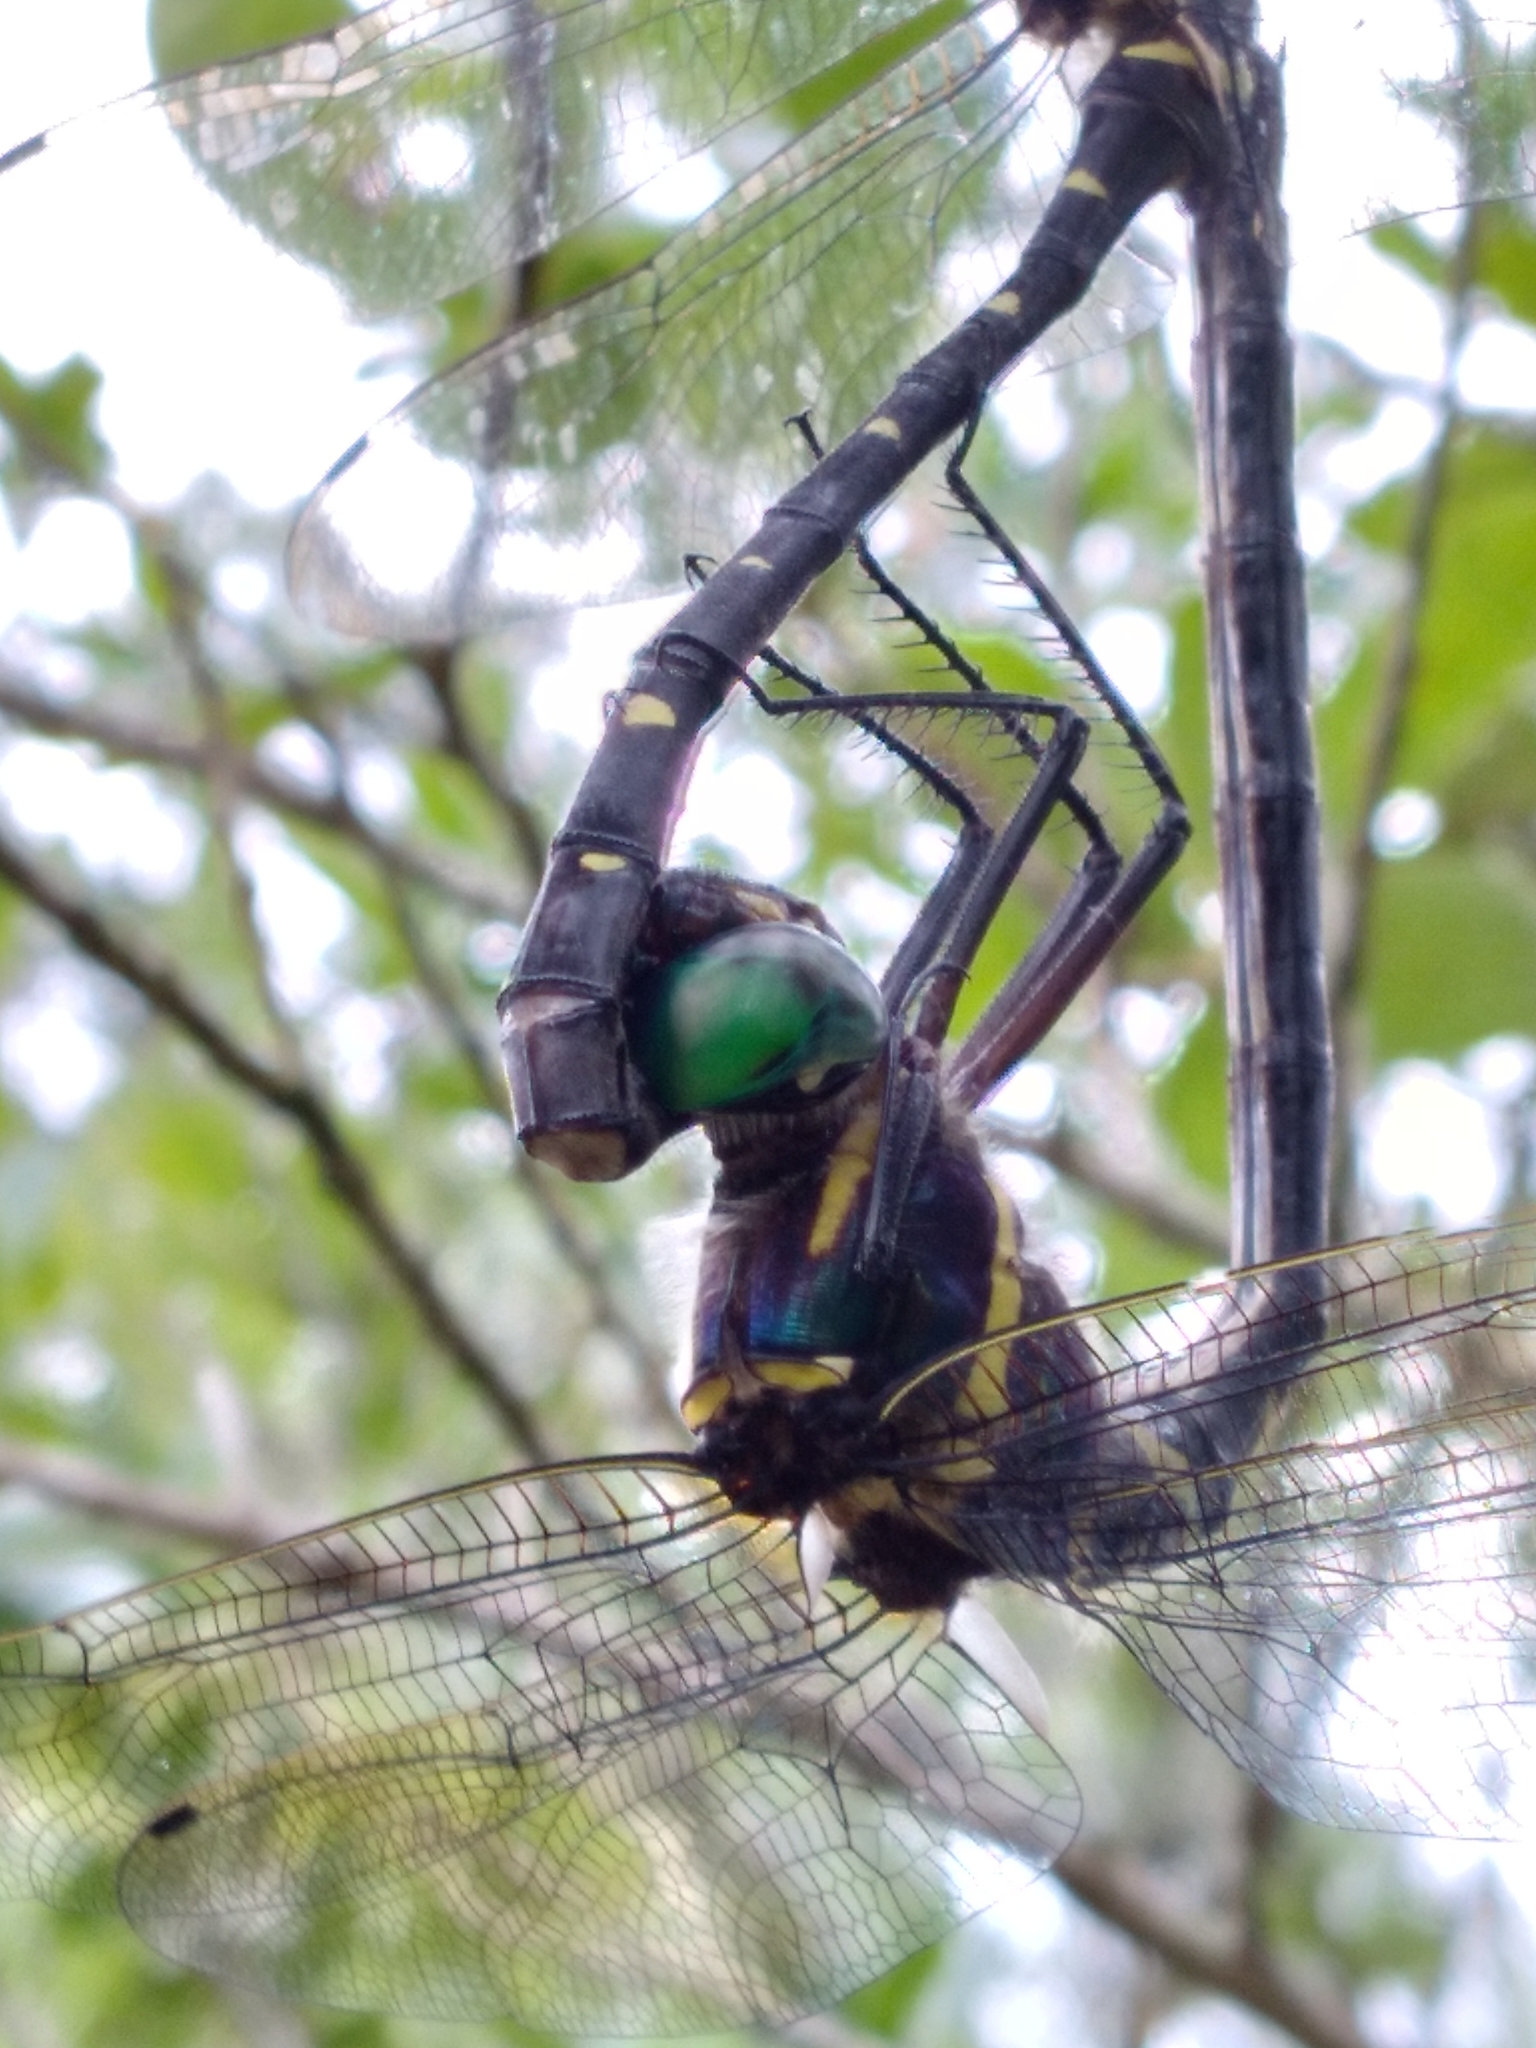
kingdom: Animalia
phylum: Arthropoda
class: Insecta
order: Odonata
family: Macromiidae
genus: Macromia
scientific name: Macromia taeniolata
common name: Royal river cruiser
